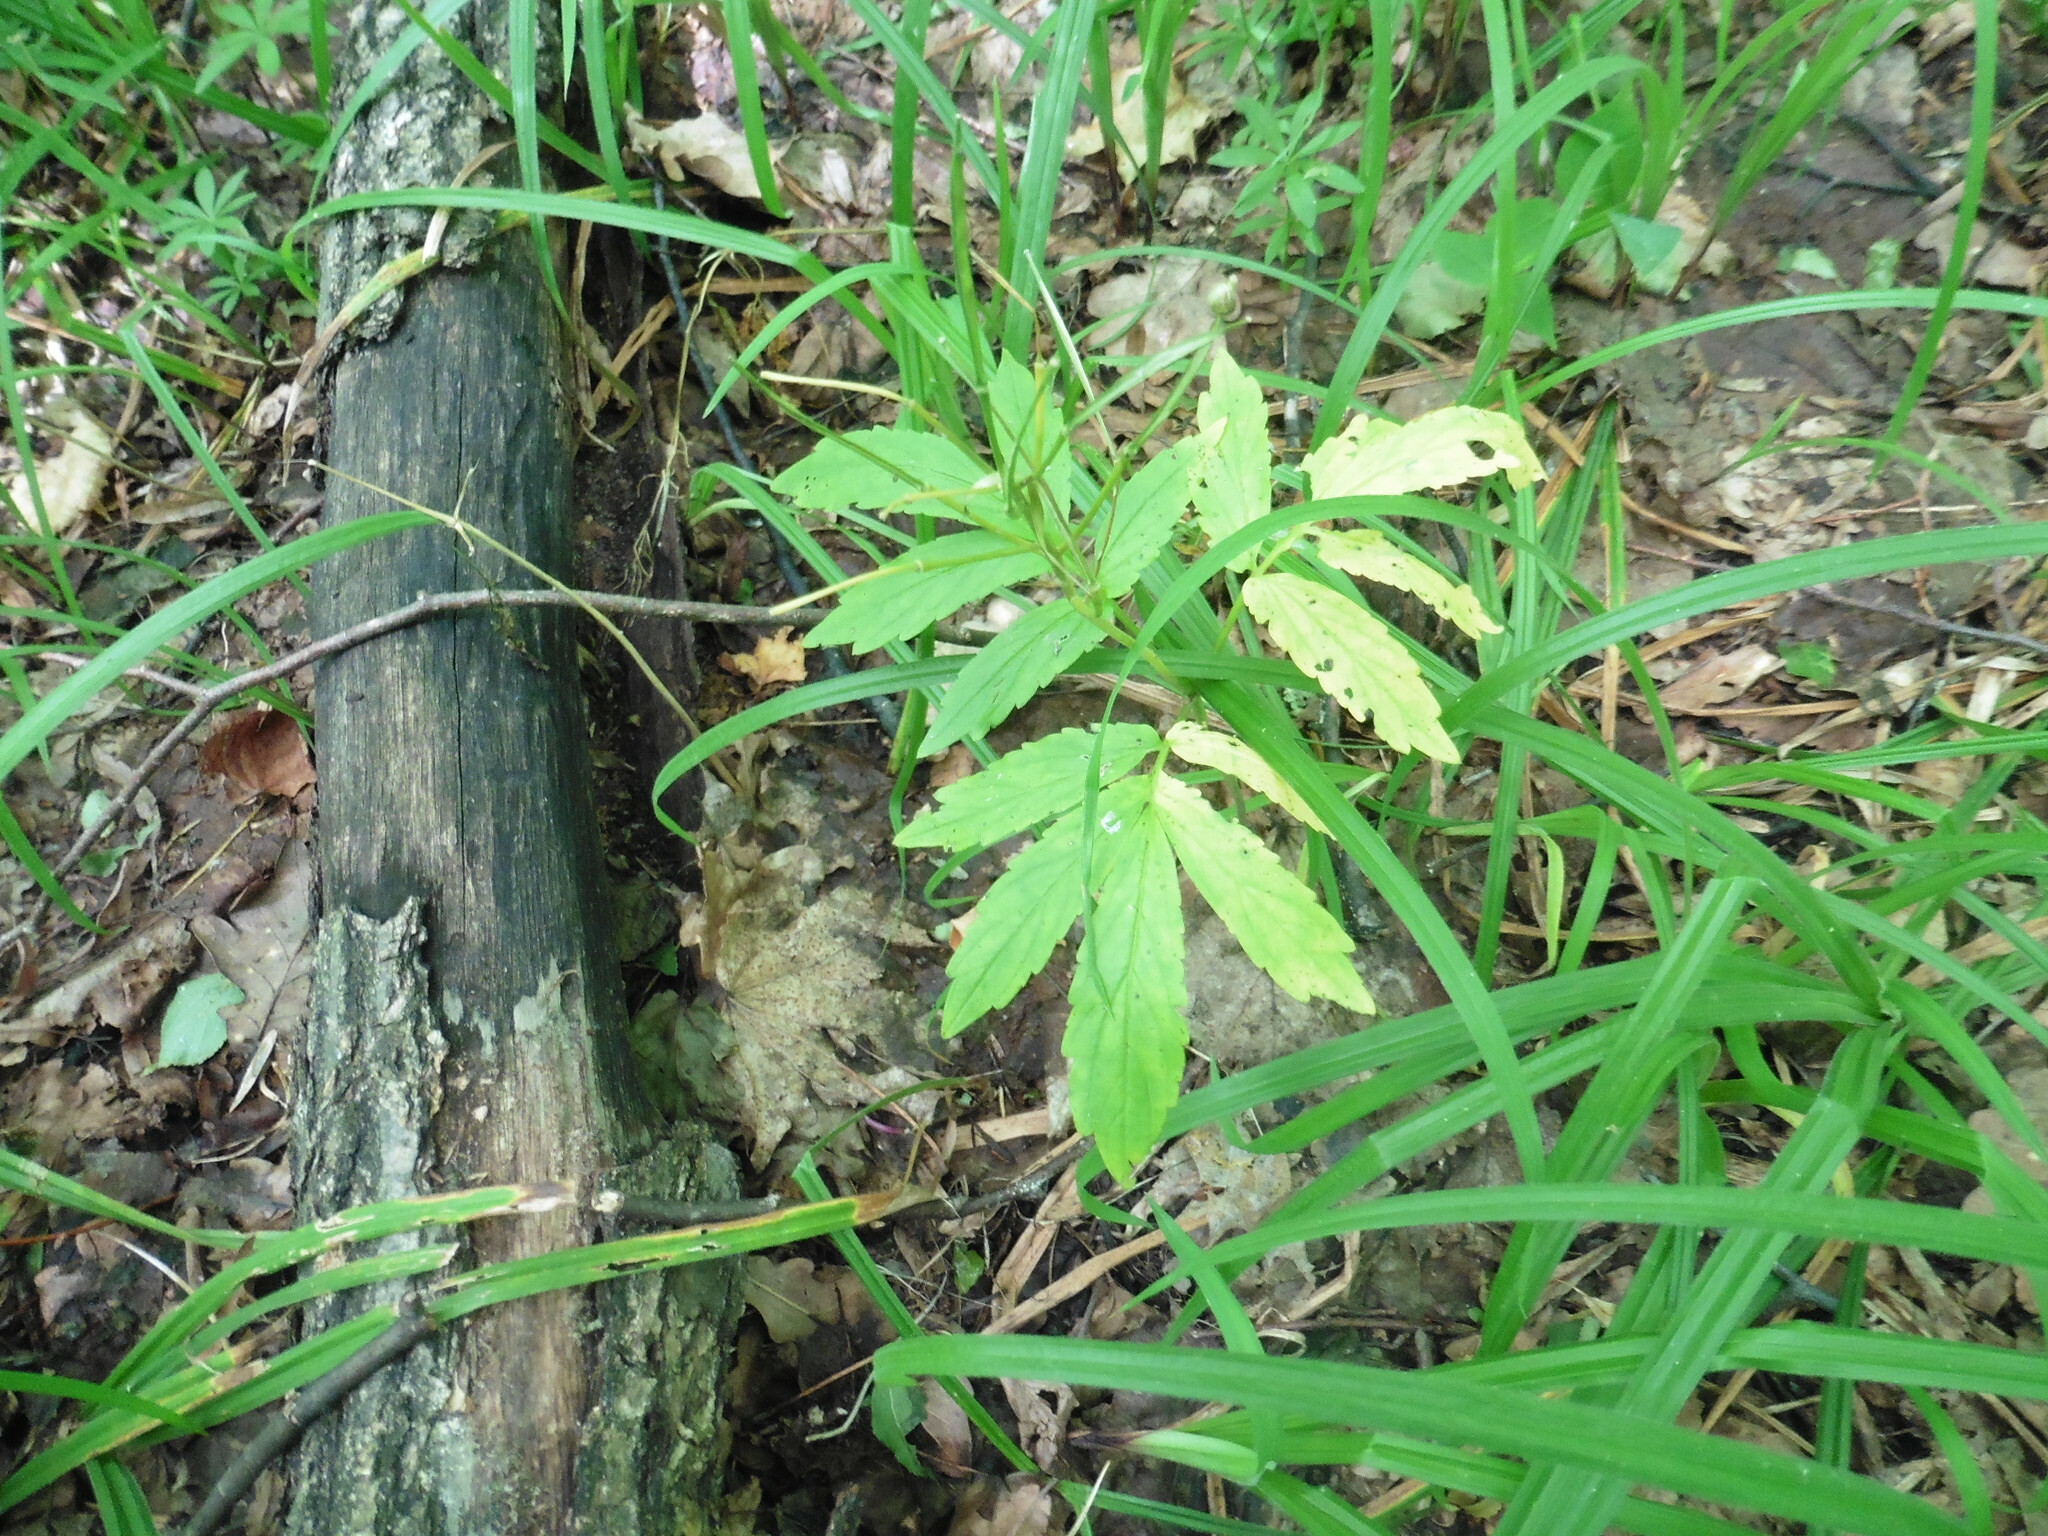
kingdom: Plantae
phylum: Tracheophyta
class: Magnoliopsida
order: Brassicales
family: Brassicaceae
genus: Cardamine
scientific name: Cardamine quinquefolia
